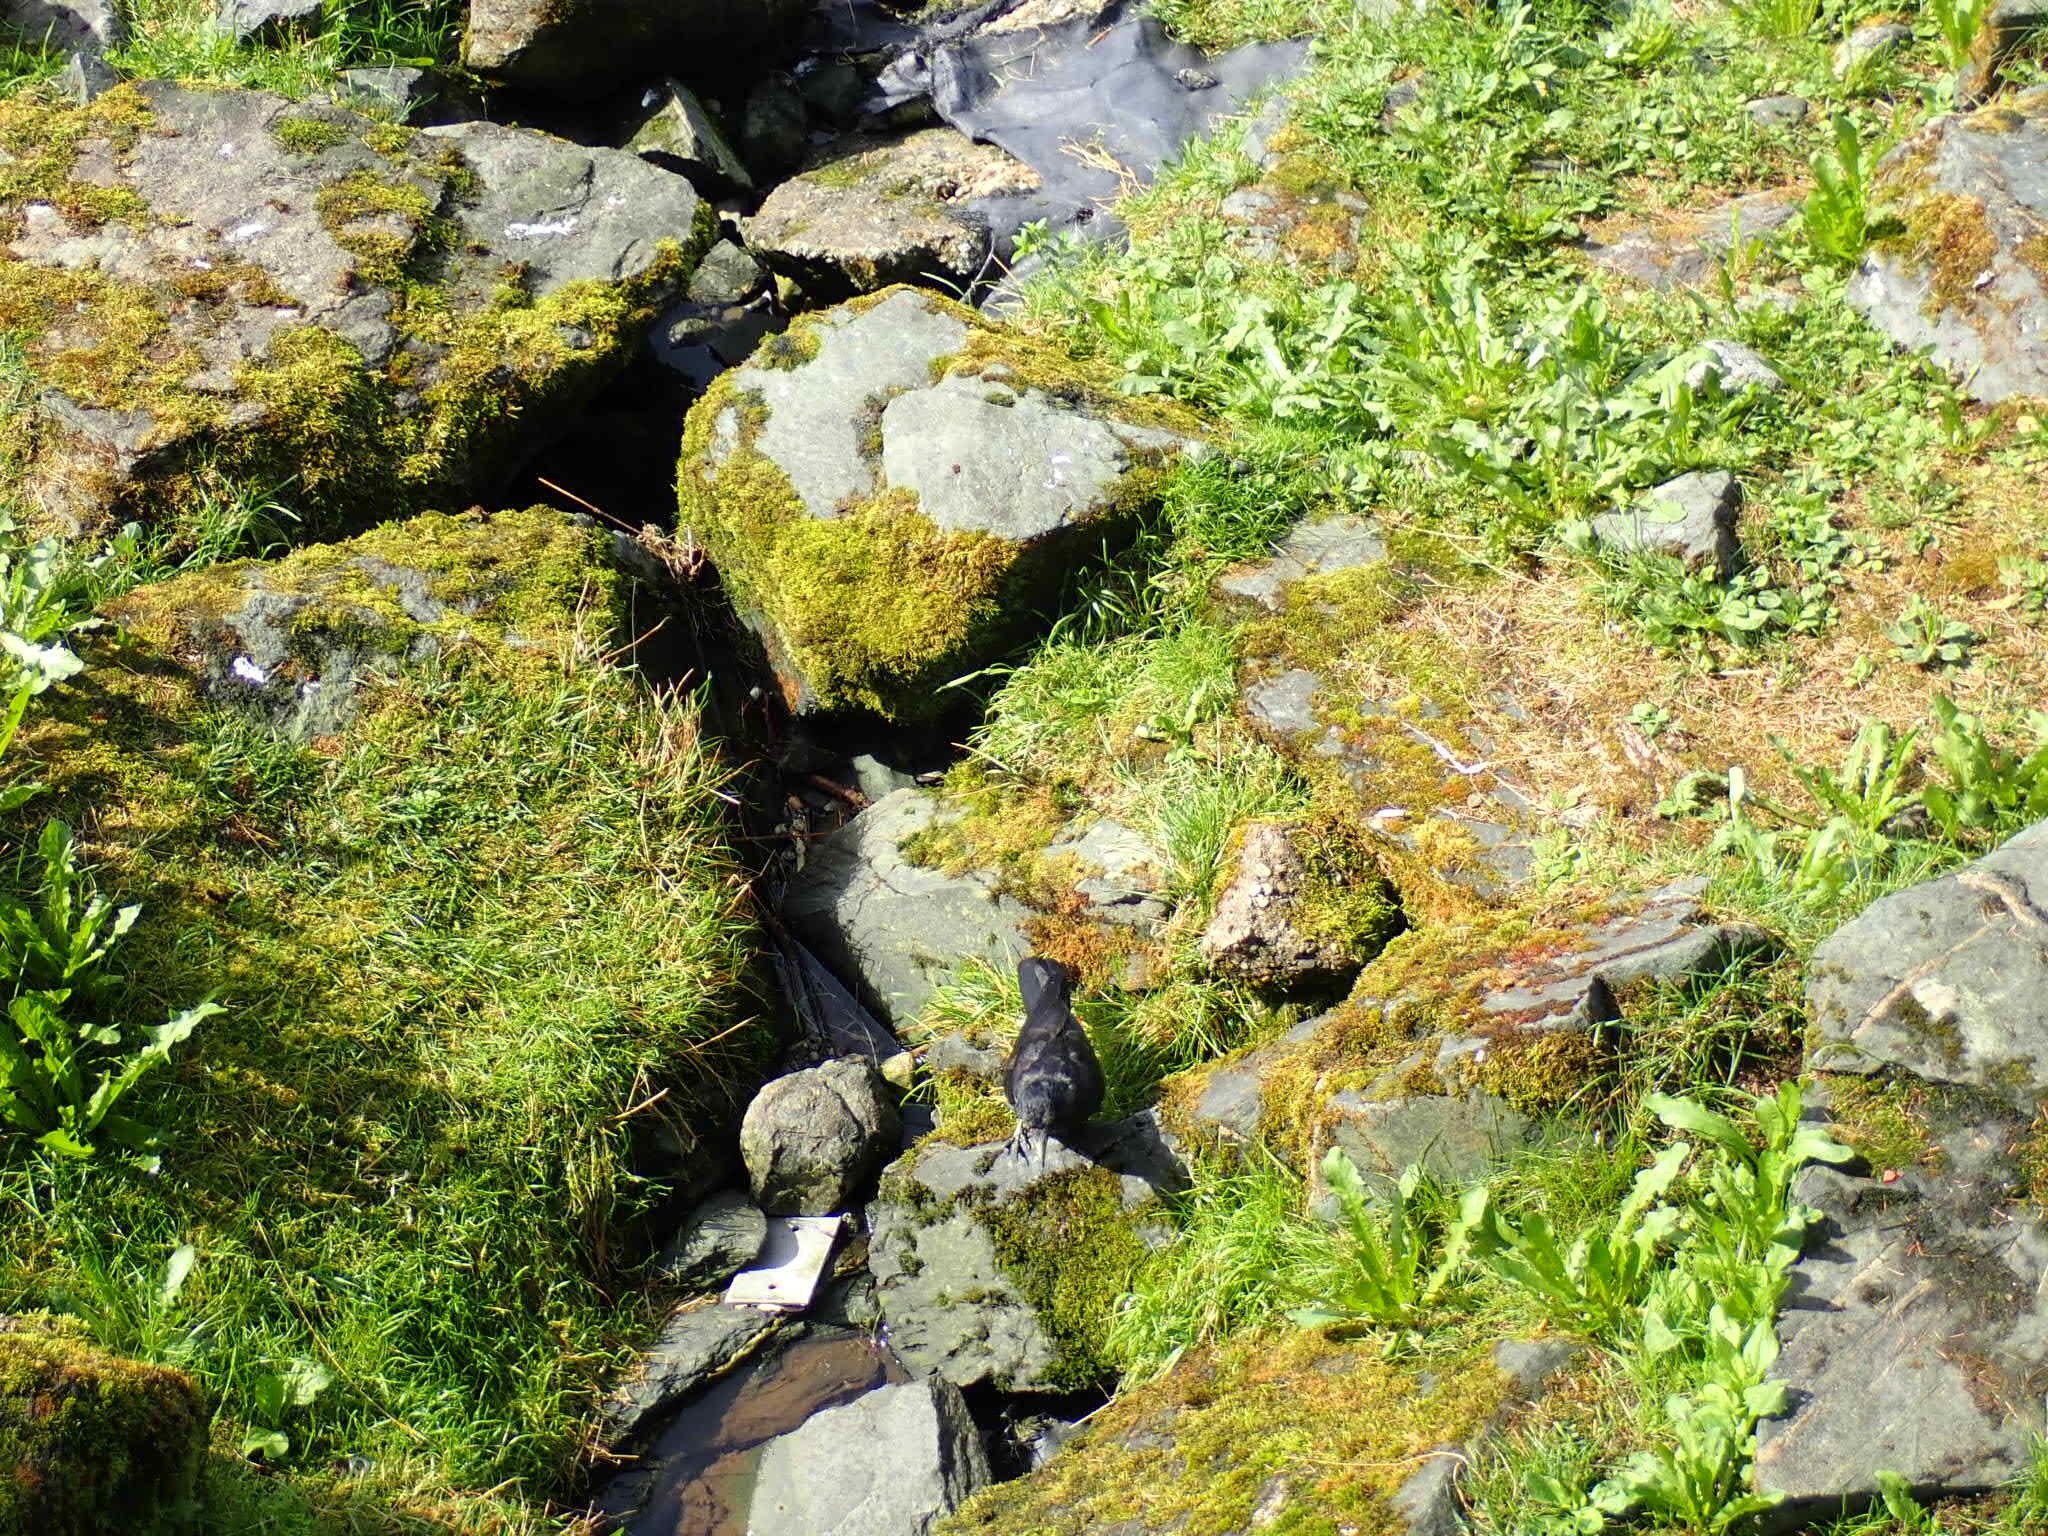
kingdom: Animalia
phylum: Chordata
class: Aves
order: Passeriformes
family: Corvidae
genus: Corvus
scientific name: Corvus corax
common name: Common raven
